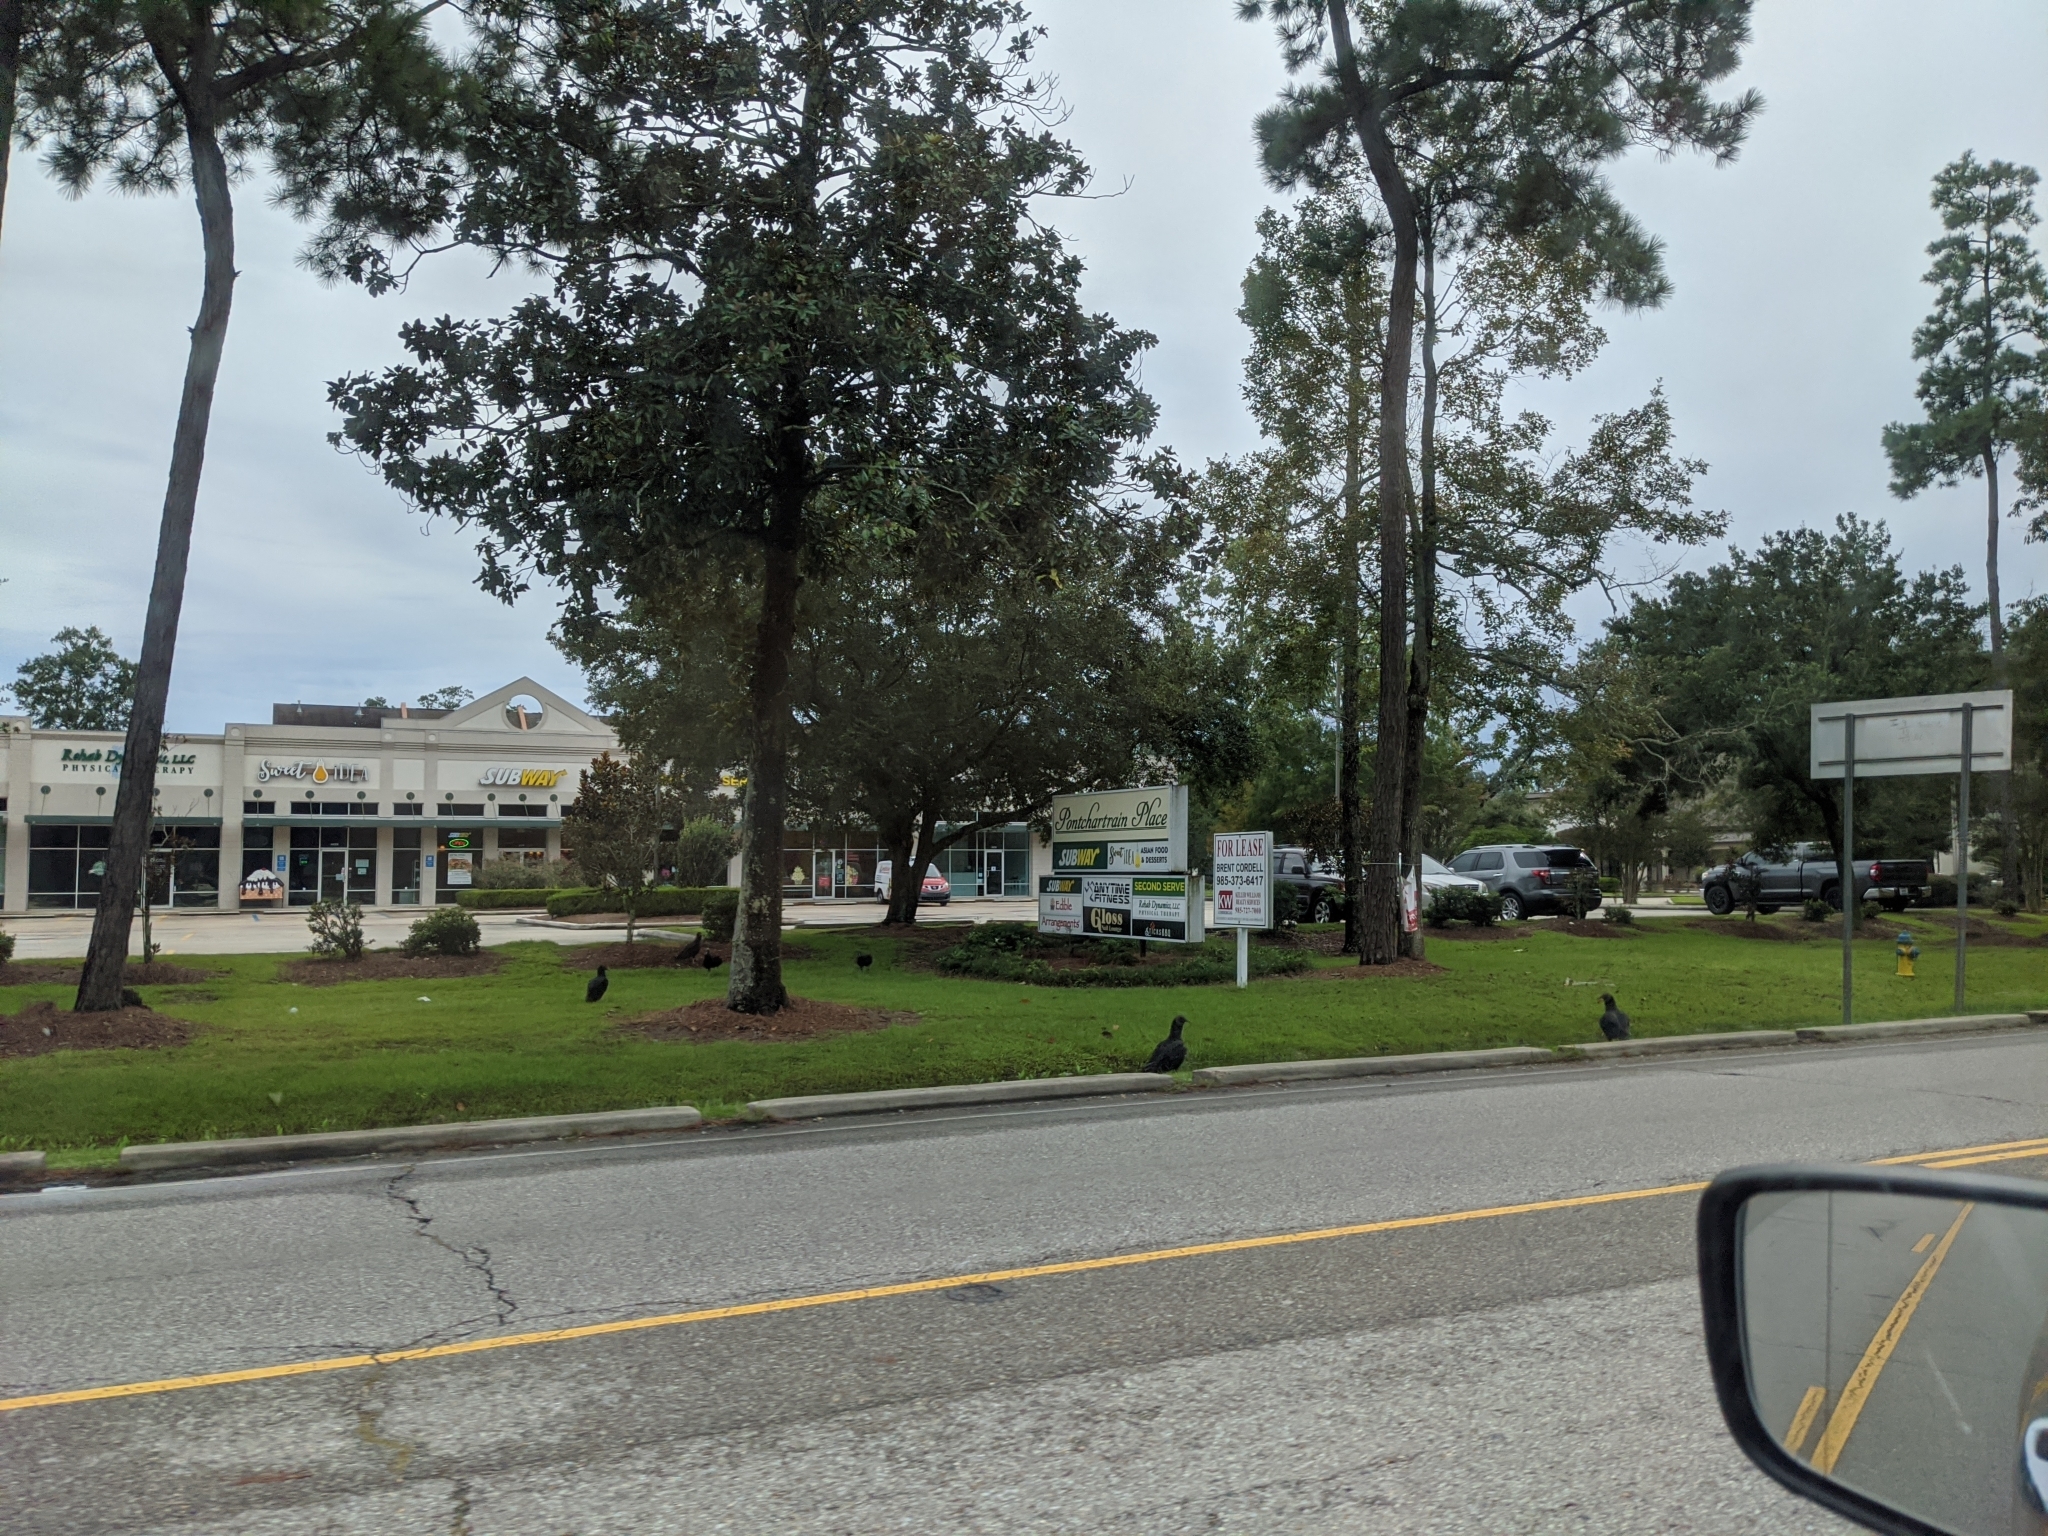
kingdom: Animalia
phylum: Chordata
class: Aves
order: Accipitriformes
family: Cathartidae
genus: Coragyps
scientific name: Coragyps atratus
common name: Black vulture
